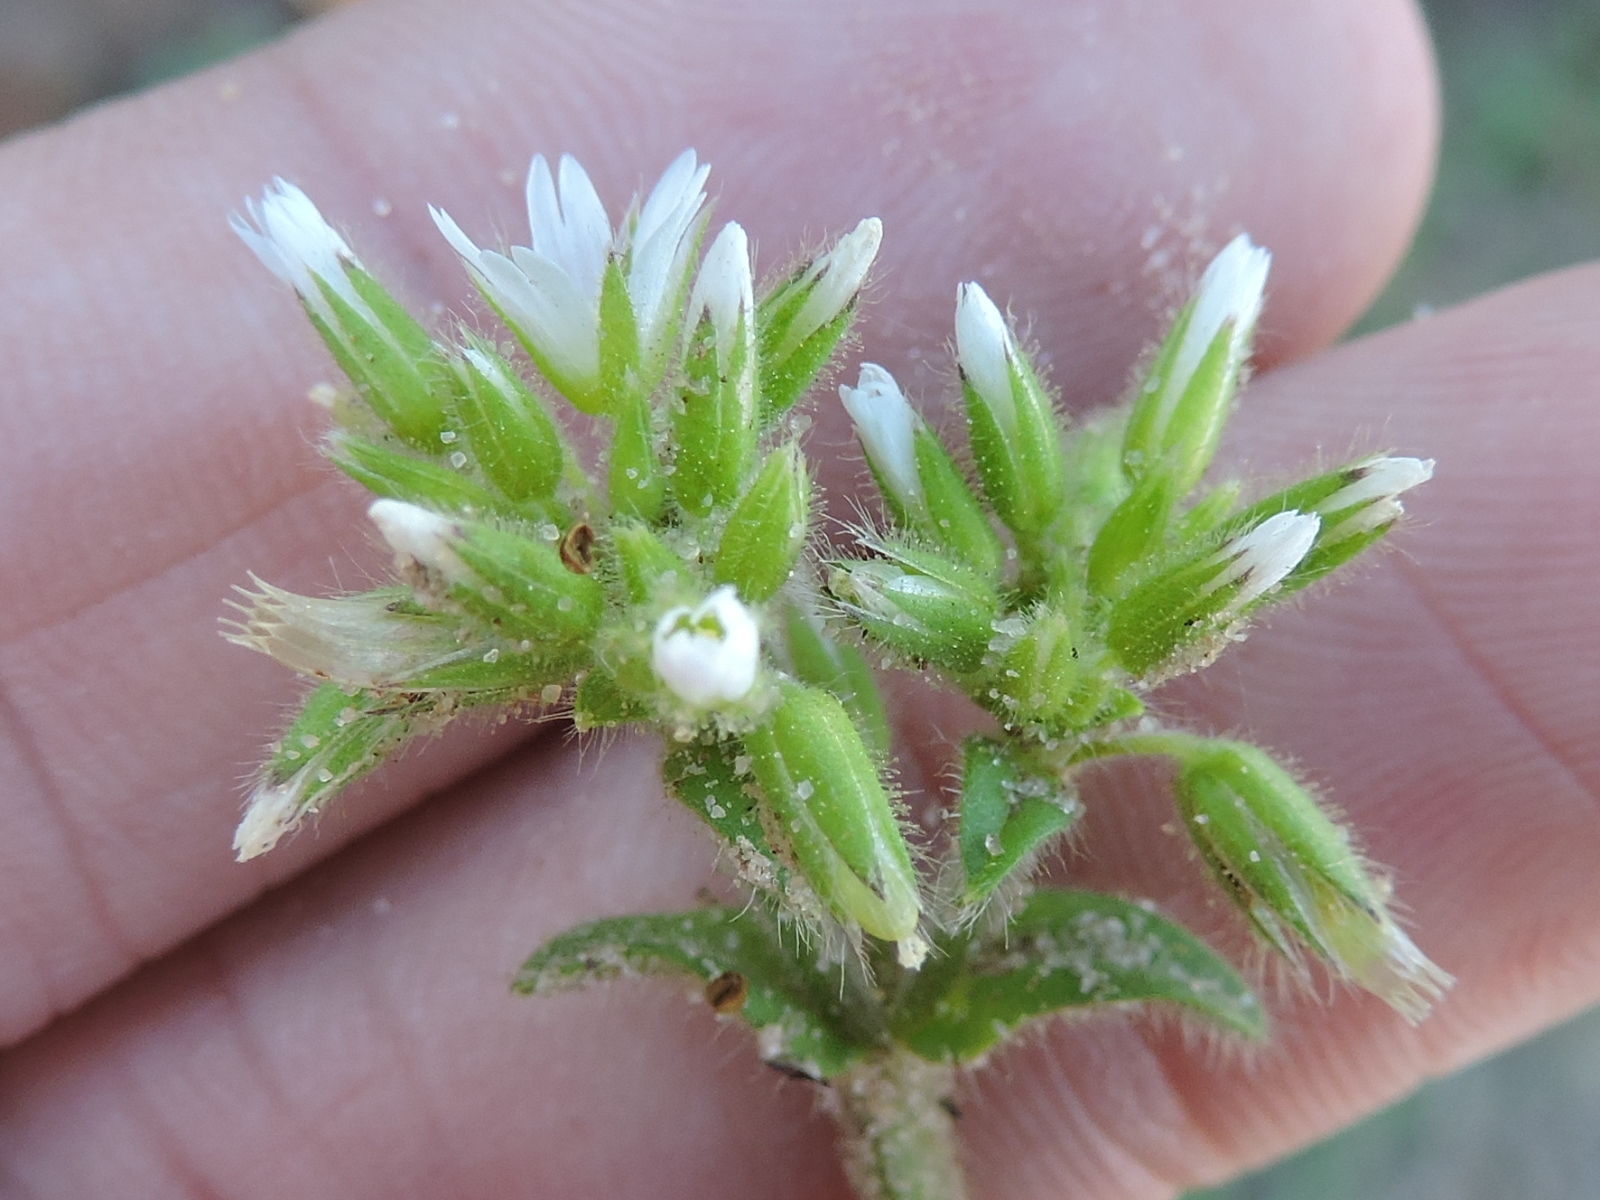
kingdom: Plantae
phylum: Tracheophyta
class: Magnoliopsida
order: Caryophyllales
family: Caryophyllaceae
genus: Cerastium
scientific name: Cerastium glomeratum
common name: Sticky chickweed
